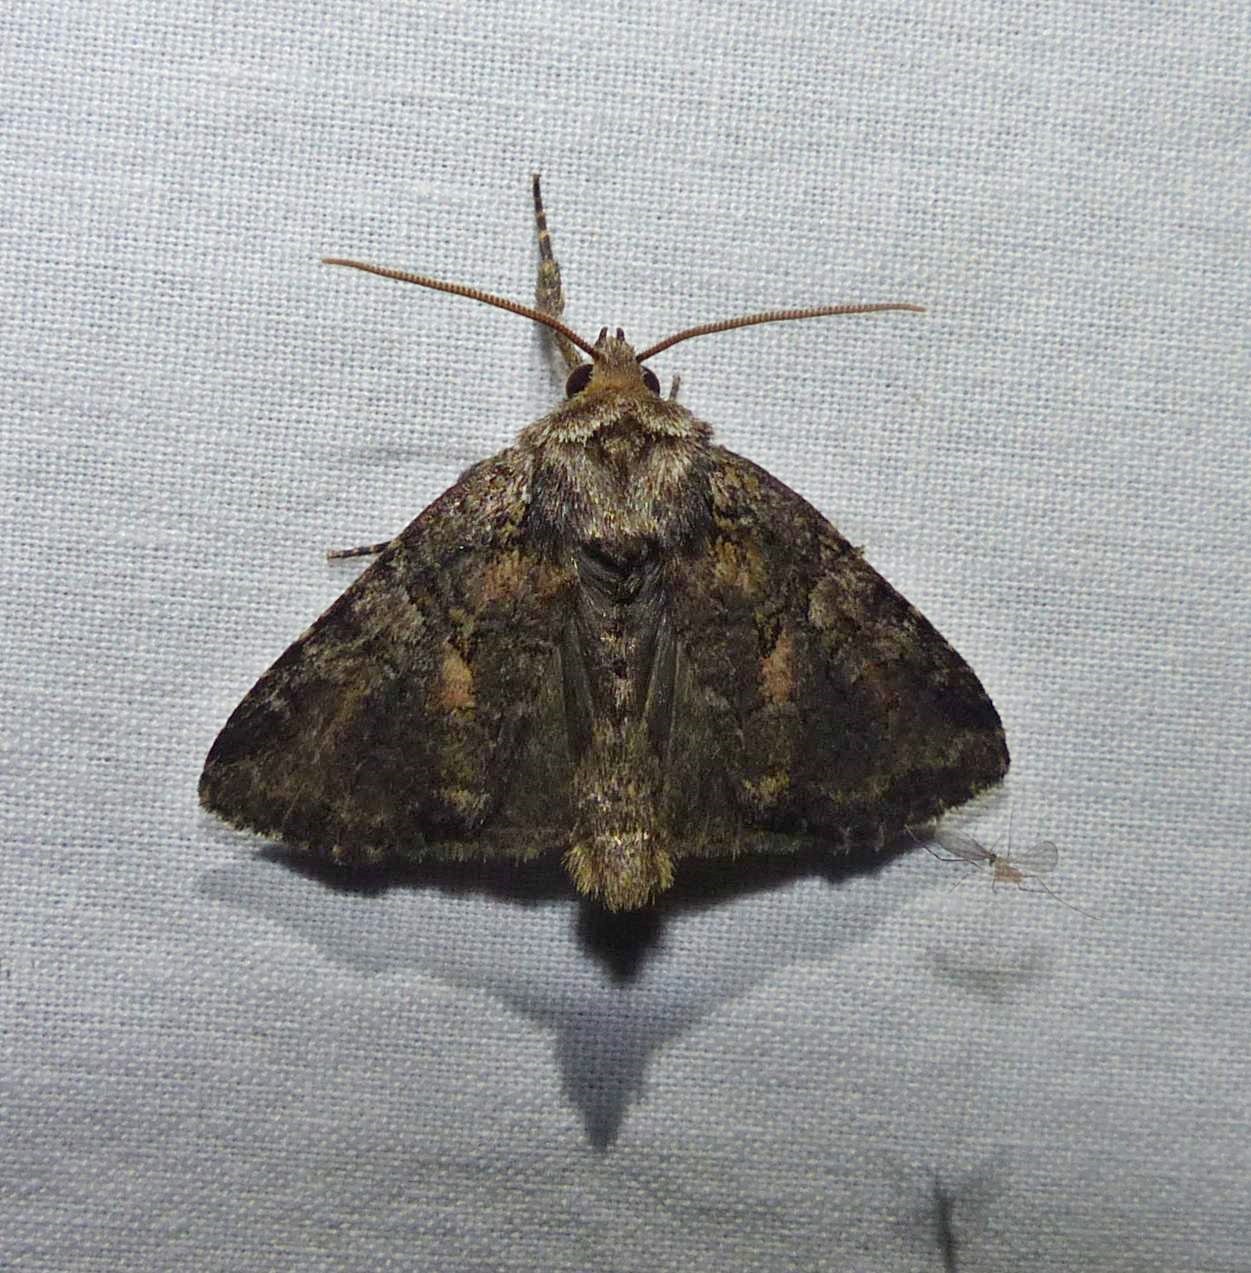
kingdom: Animalia
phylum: Arthropoda
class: Insecta
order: Lepidoptera
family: Noctuidae
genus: Orthodes
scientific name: Orthodes detracta
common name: Disparaged arches moth
